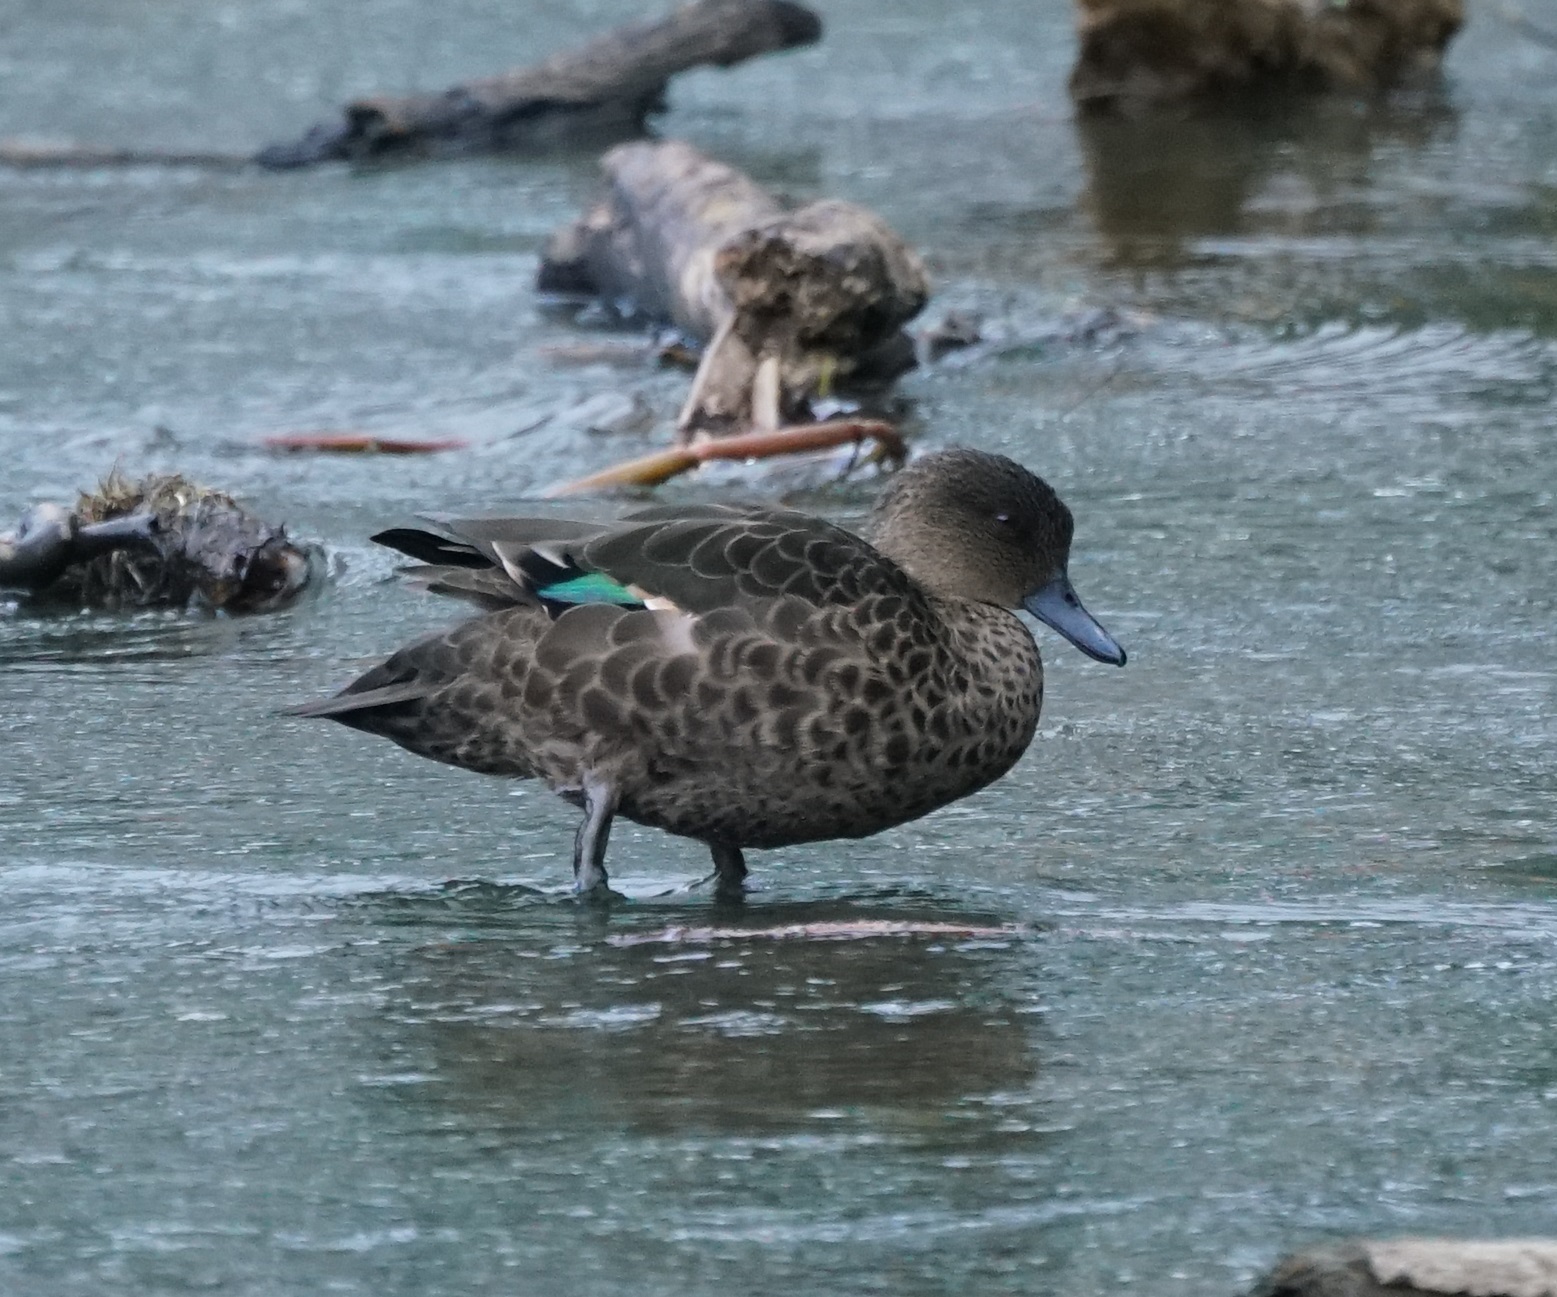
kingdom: Animalia
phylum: Chordata
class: Aves
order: Anseriformes
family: Anatidae
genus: Anas
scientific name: Anas castanea
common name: Chestnut teal
